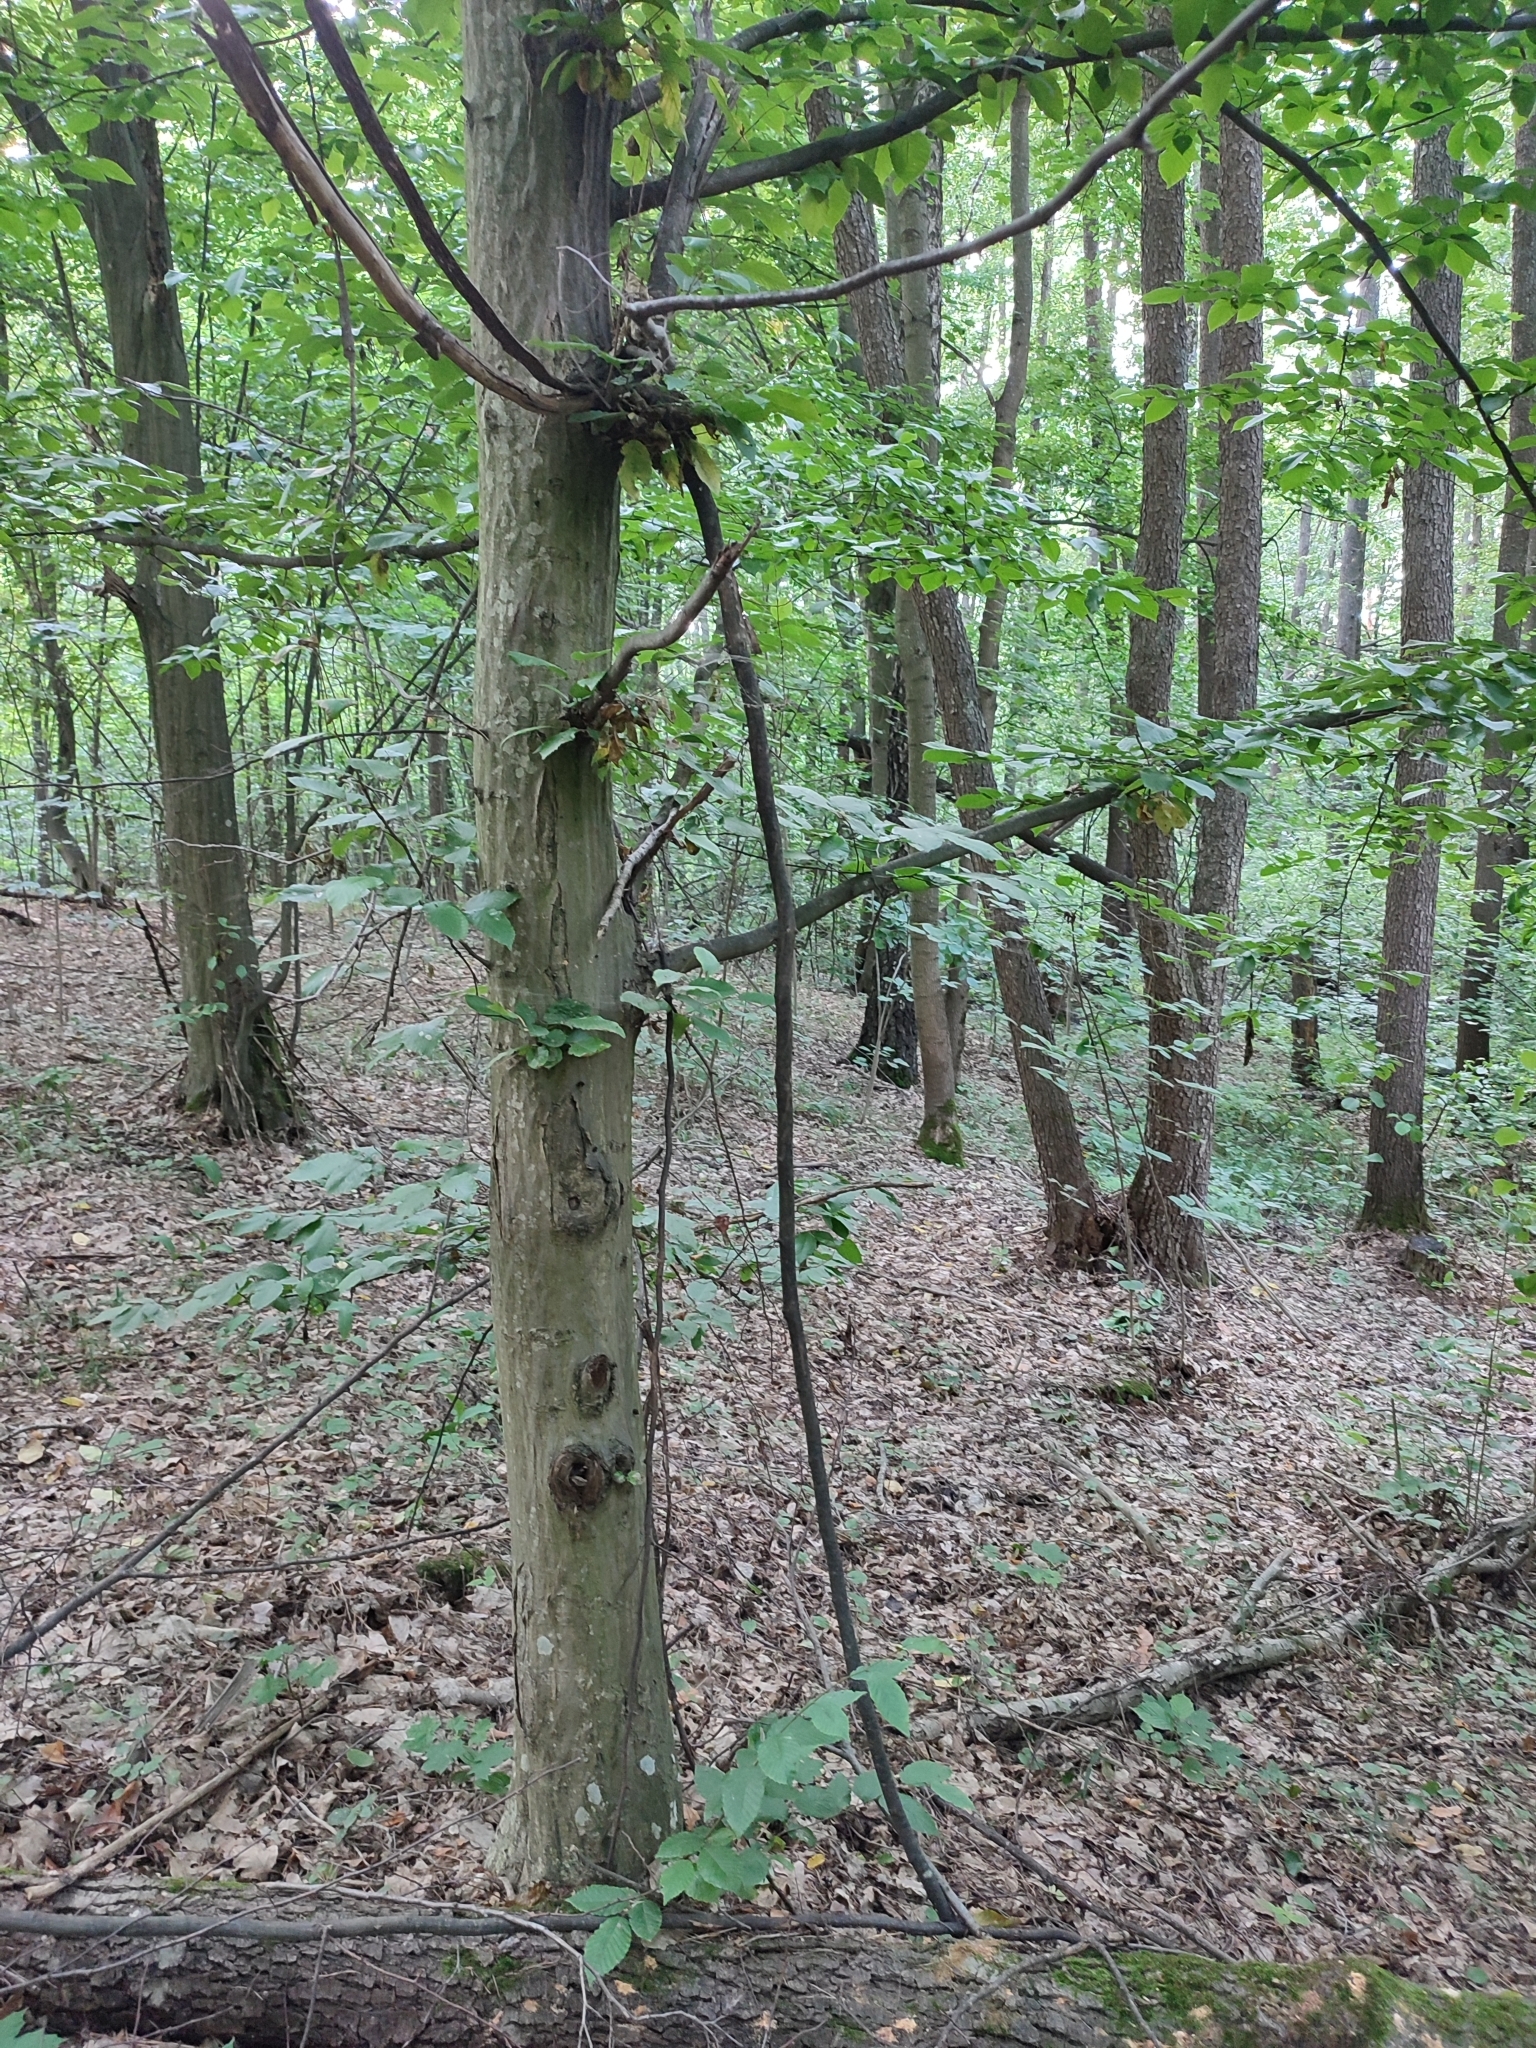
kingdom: Plantae
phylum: Tracheophyta
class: Magnoliopsida
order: Fagales
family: Betulaceae
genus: Carpinus
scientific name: Carpinus betulus
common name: Hornbeam
